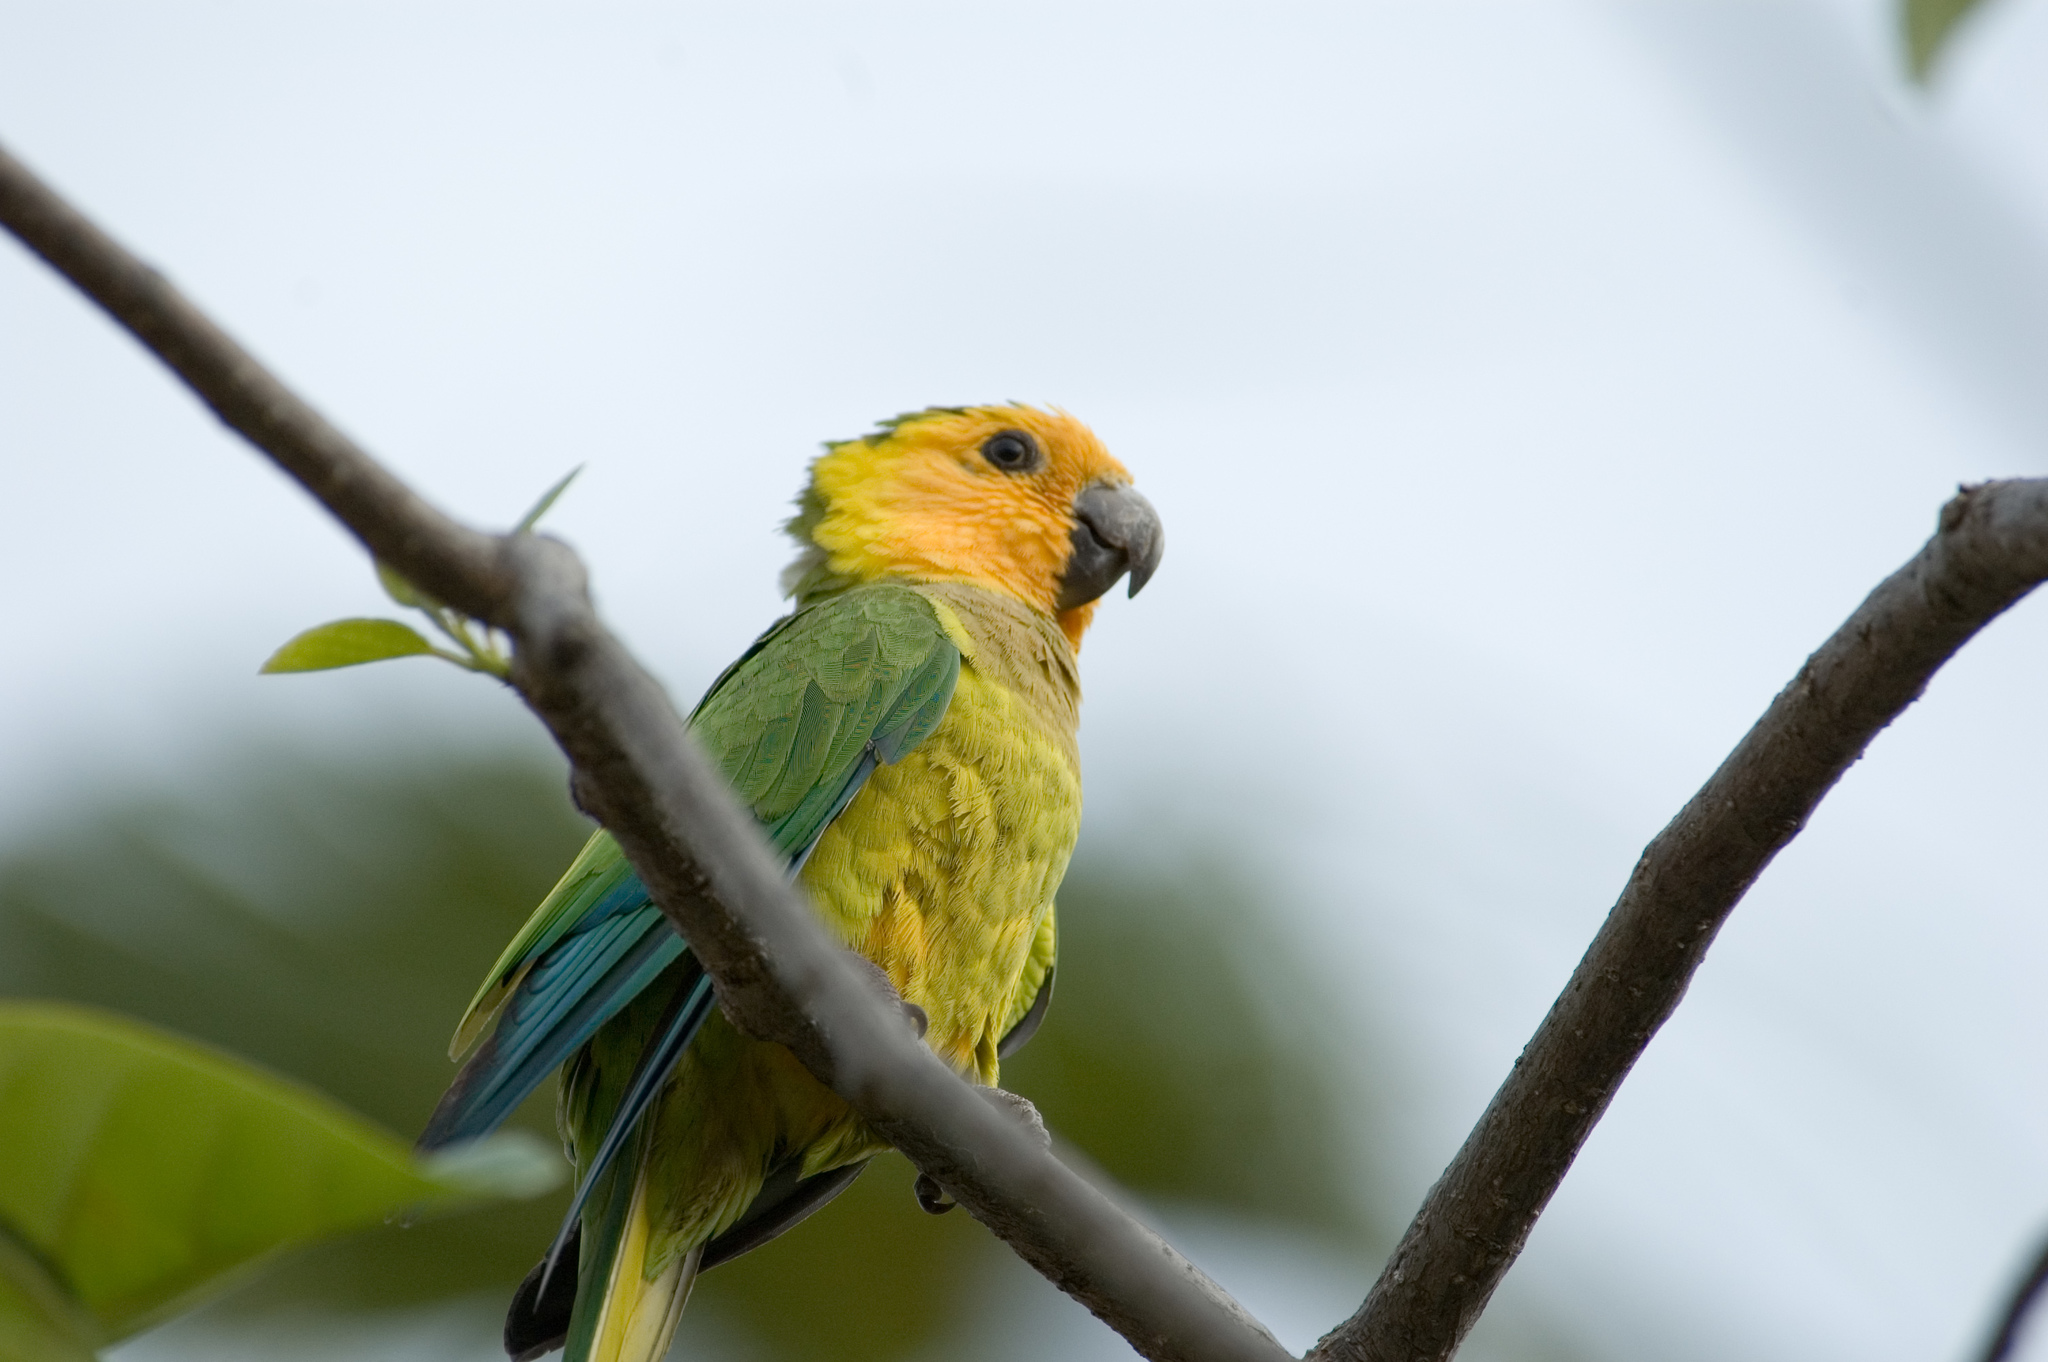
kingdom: Animalia
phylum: Chordata
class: Aves
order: Psittaciformes
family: Psittacidae
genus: Aratinga
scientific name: Aratinga pertinax
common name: Brown-throated parakeet
